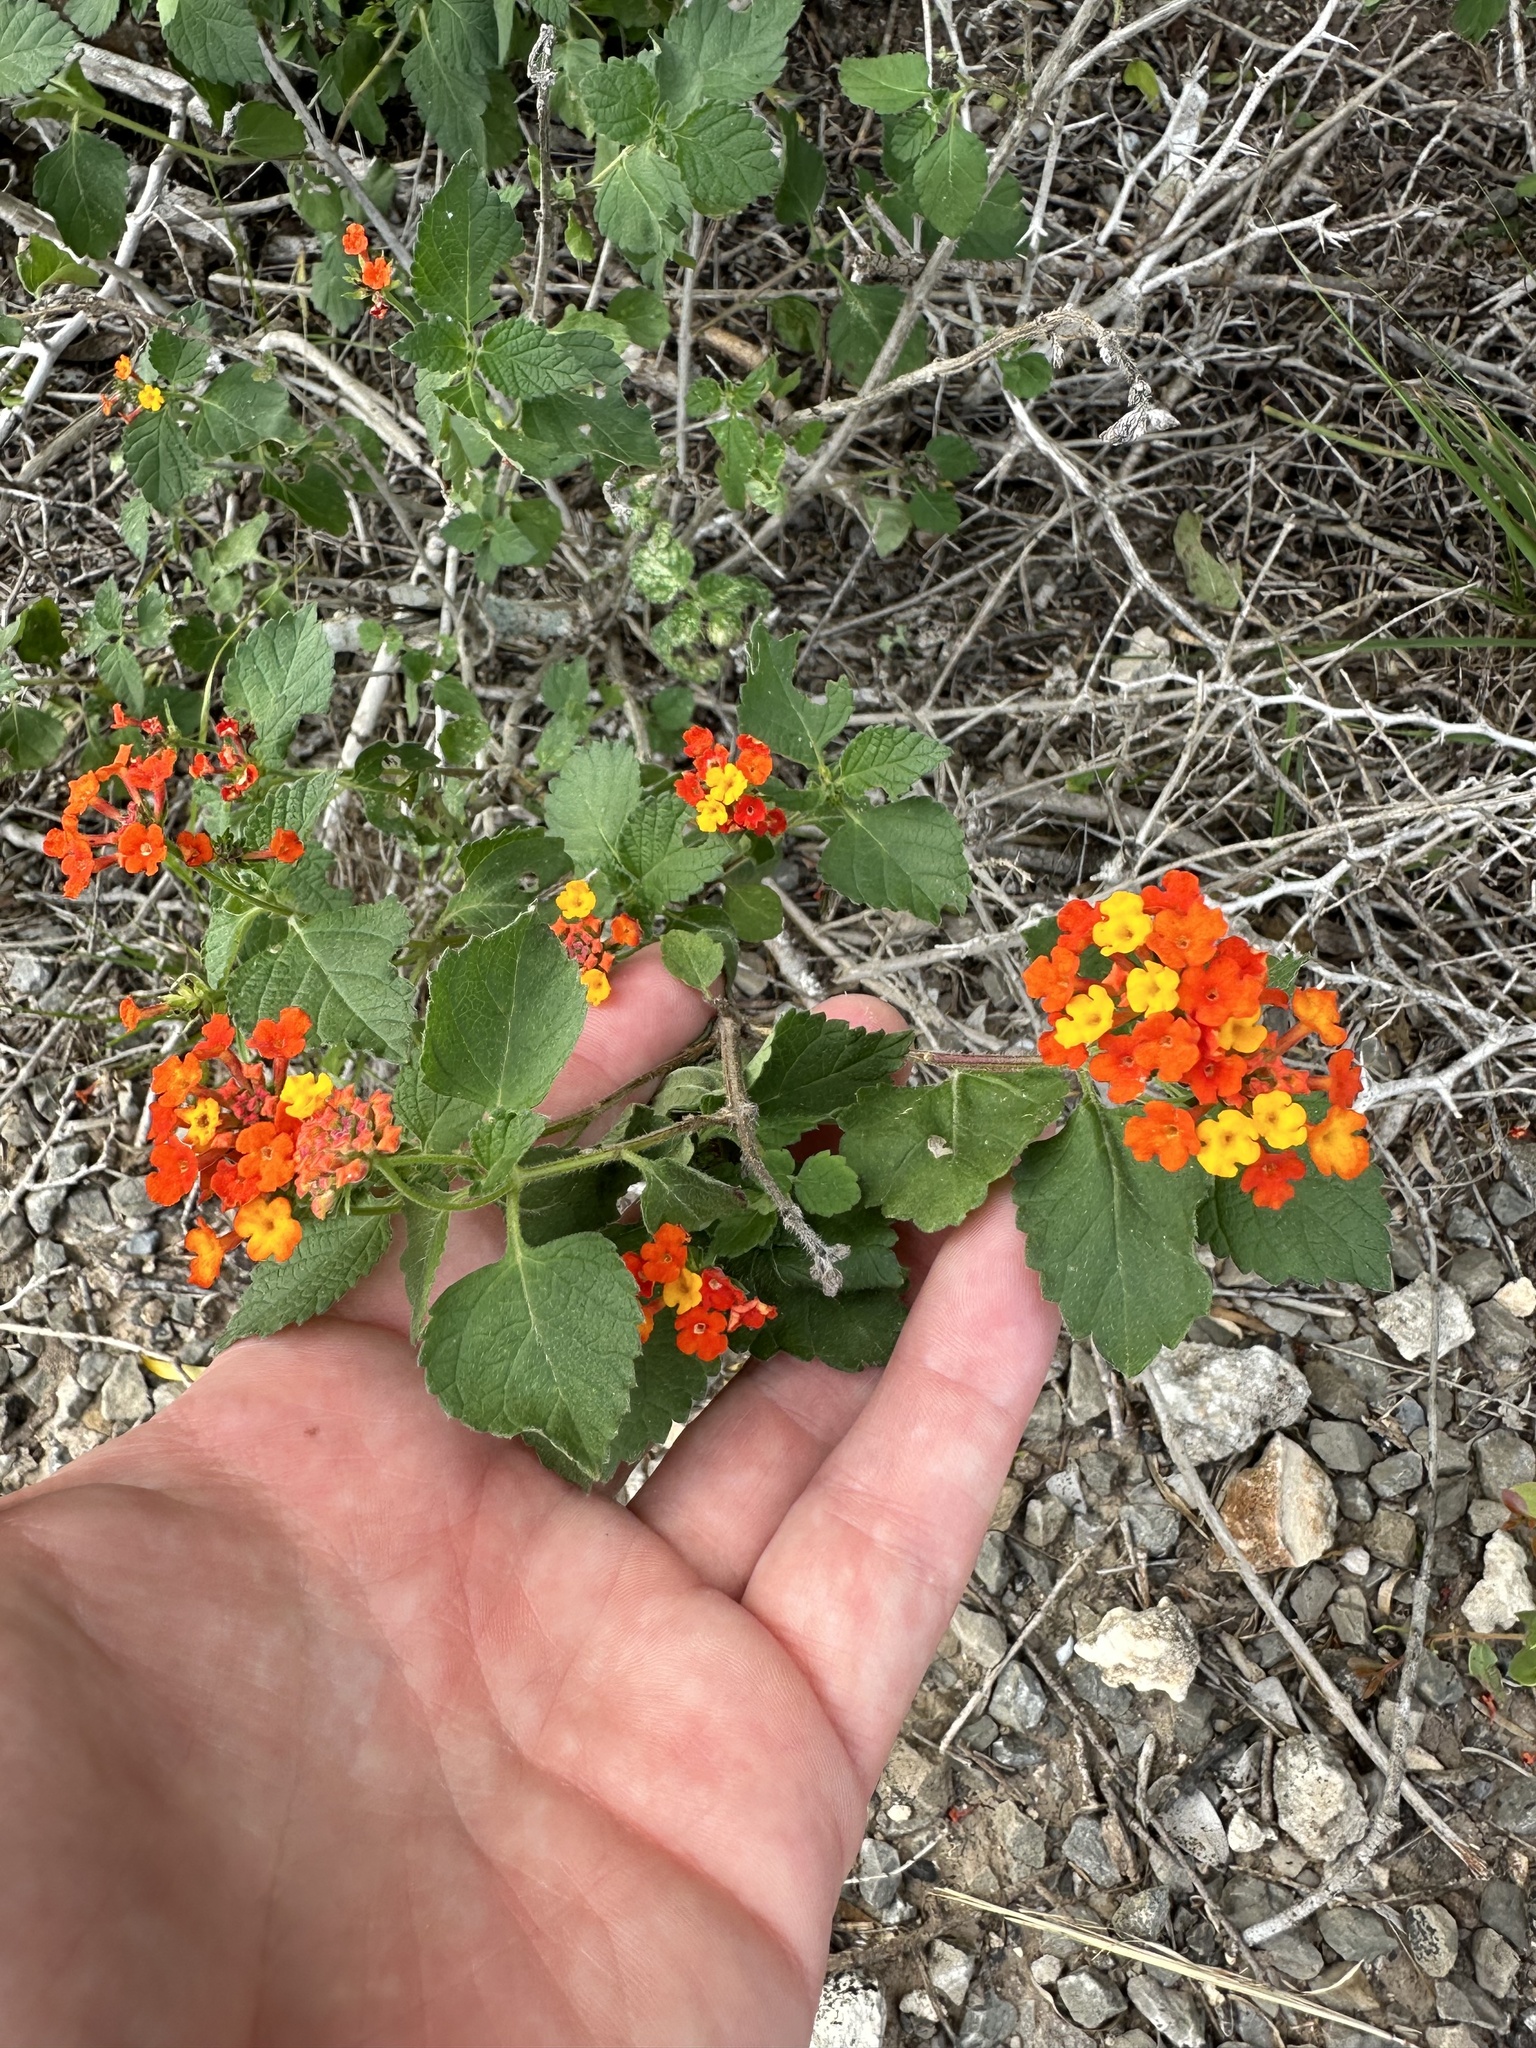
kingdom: Plantae
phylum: Tracheophyta
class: Magnoliopsida
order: Lamiales
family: Verbenaceae
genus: Lantana
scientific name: Lantana urticoides
